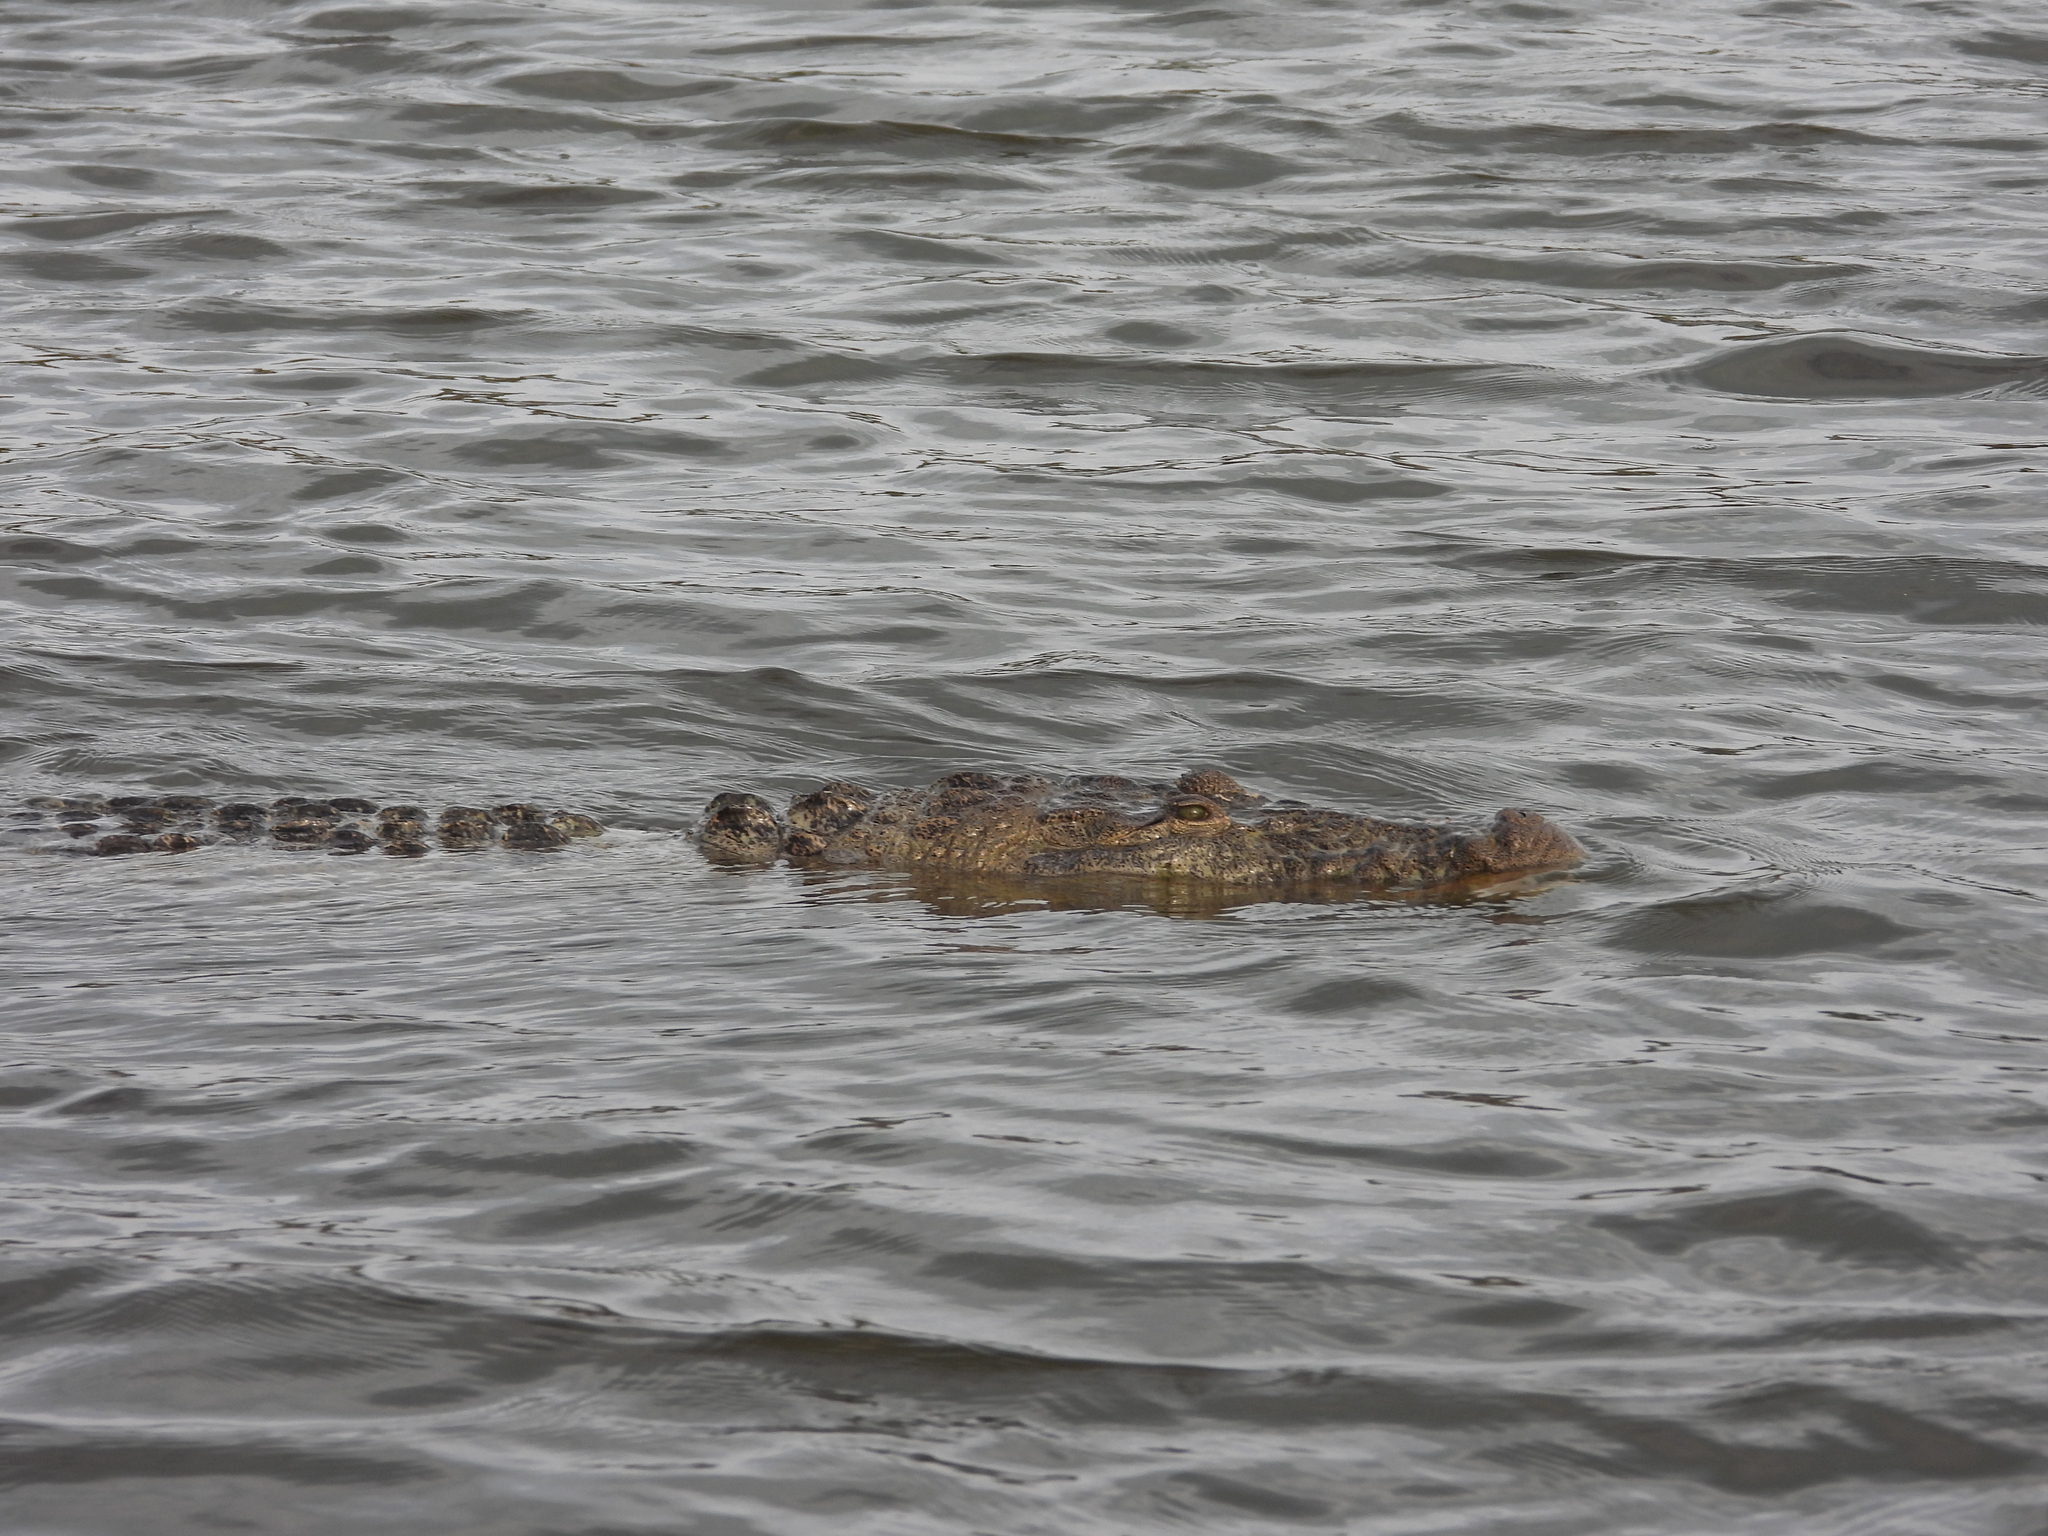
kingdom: Animalia
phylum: Chordata
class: Crocodylia
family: Crocodylidae
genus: Crocodylus
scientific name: Crocodylus moreletii
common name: Morelet's crocodile
